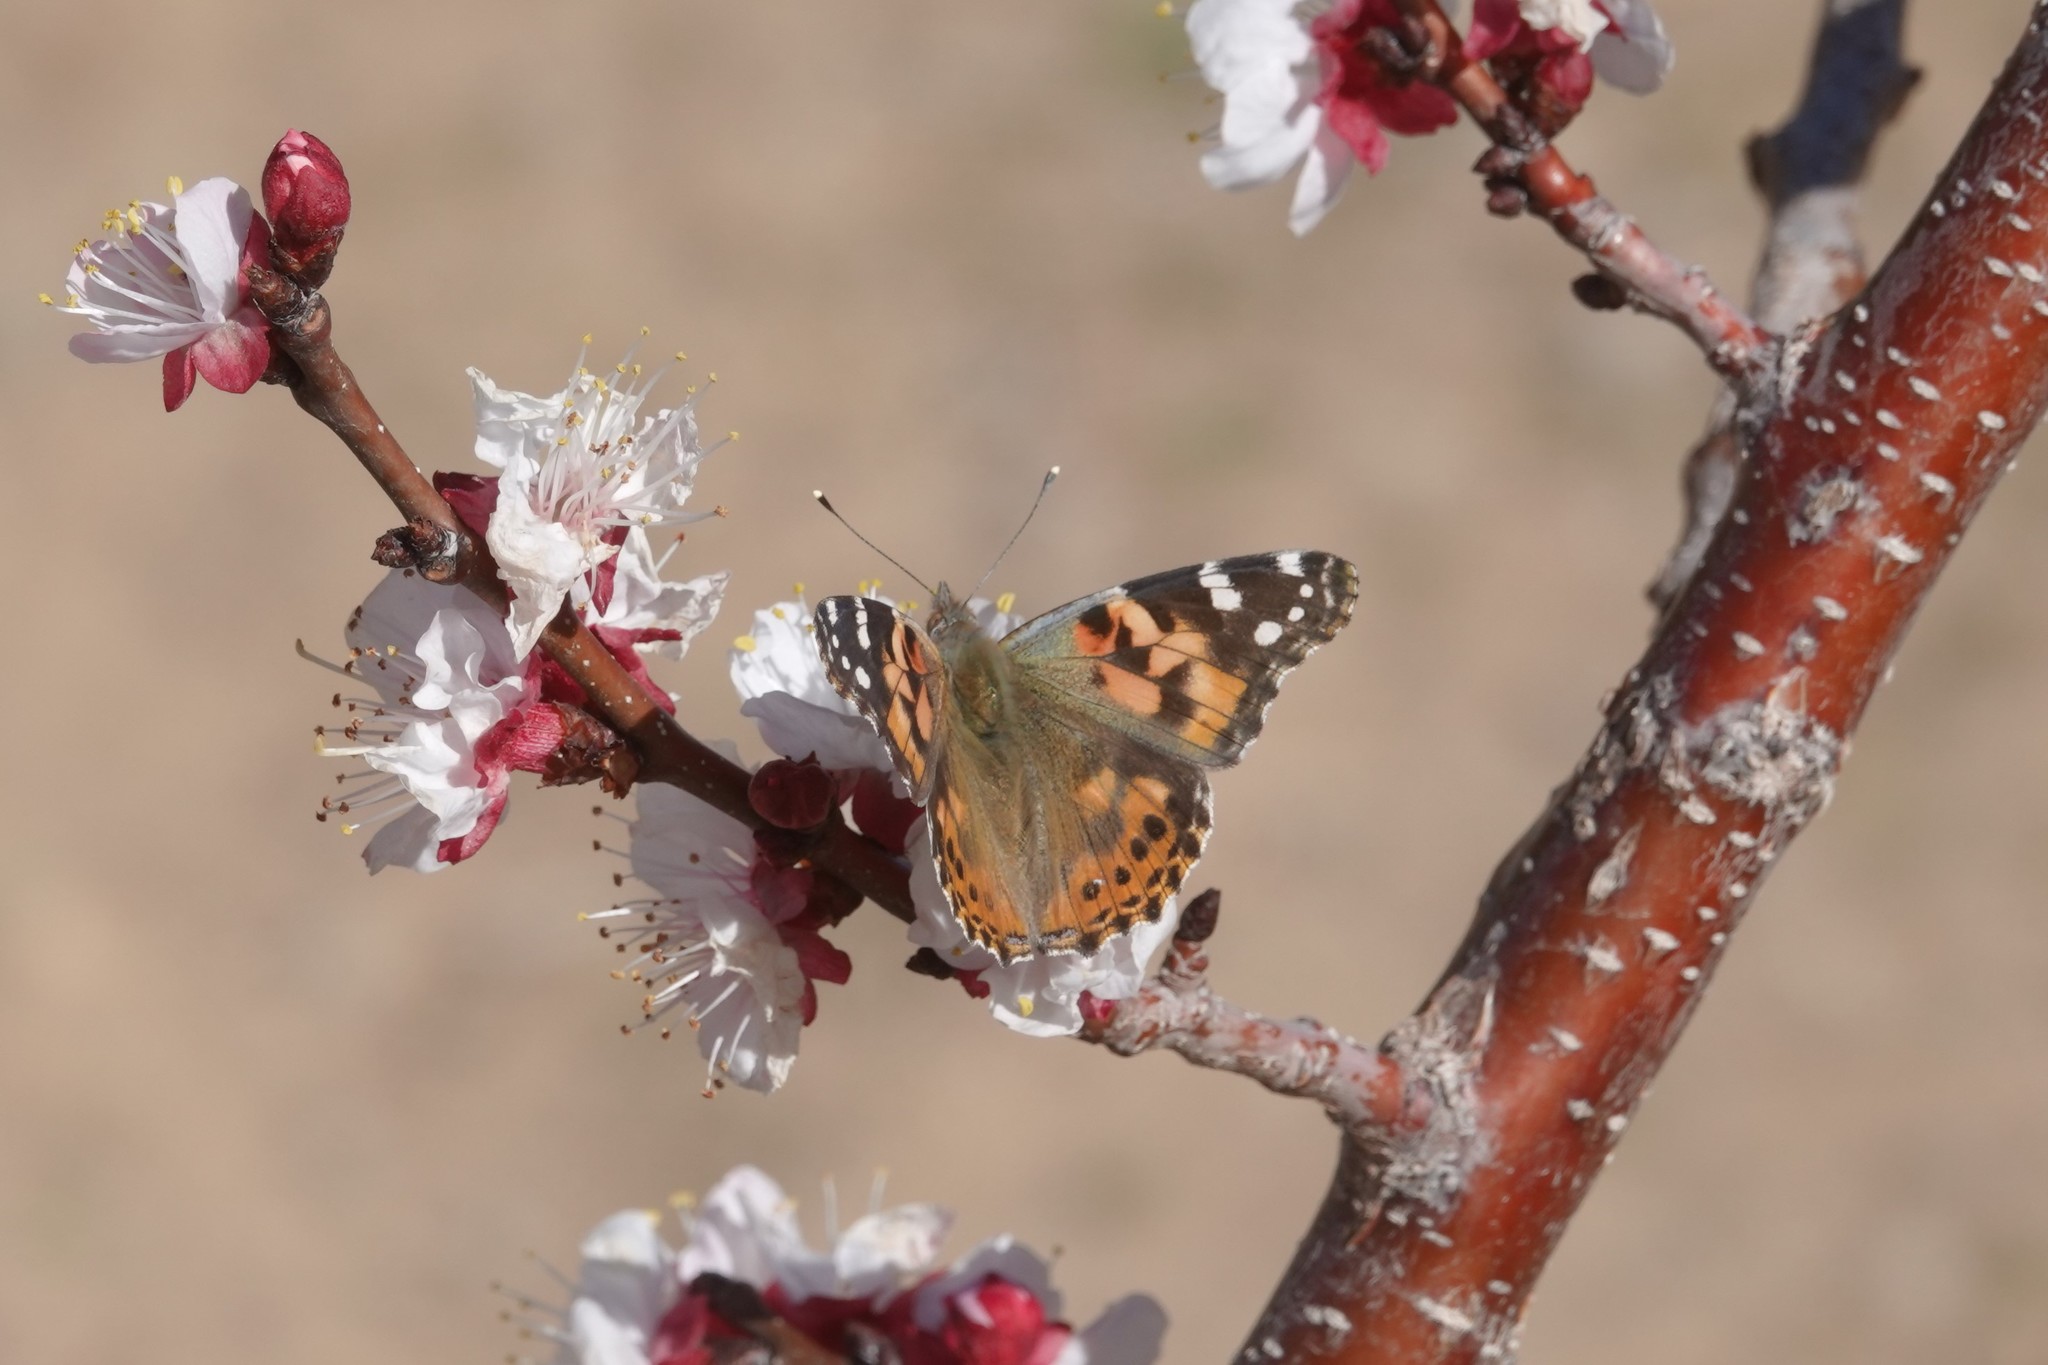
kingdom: Animalia
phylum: Arthropoda
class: Insecta
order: Lepidoptera
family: Nymphalidae
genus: Vanessa
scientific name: Vanessa cardui
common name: Painted lady
